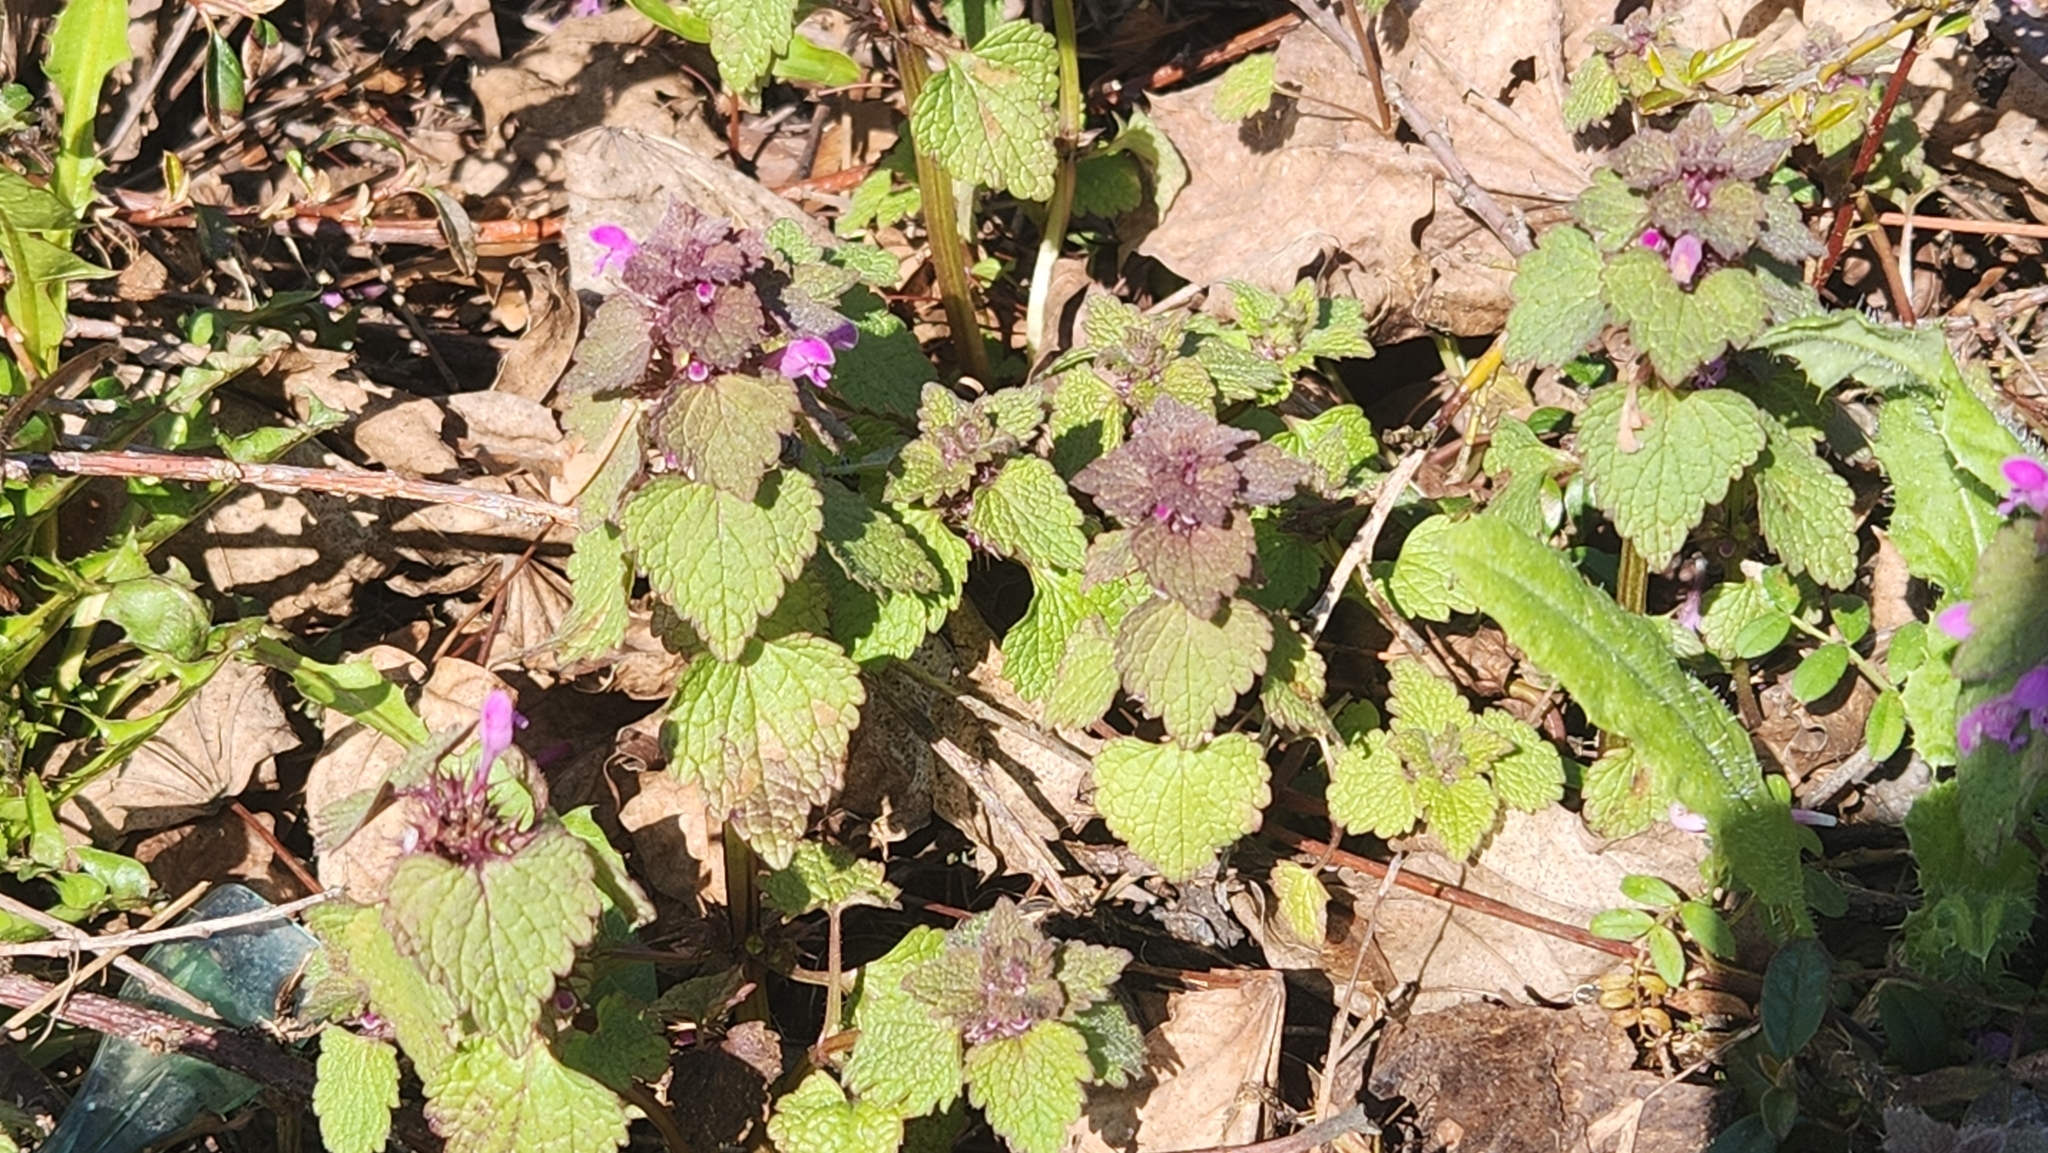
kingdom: Plantae
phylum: Tracheophyta
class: Magnoliopsida
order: Lamiales
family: Lamiaceae
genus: Lamium
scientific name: Lamium purpureum
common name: Red dead-nettle
